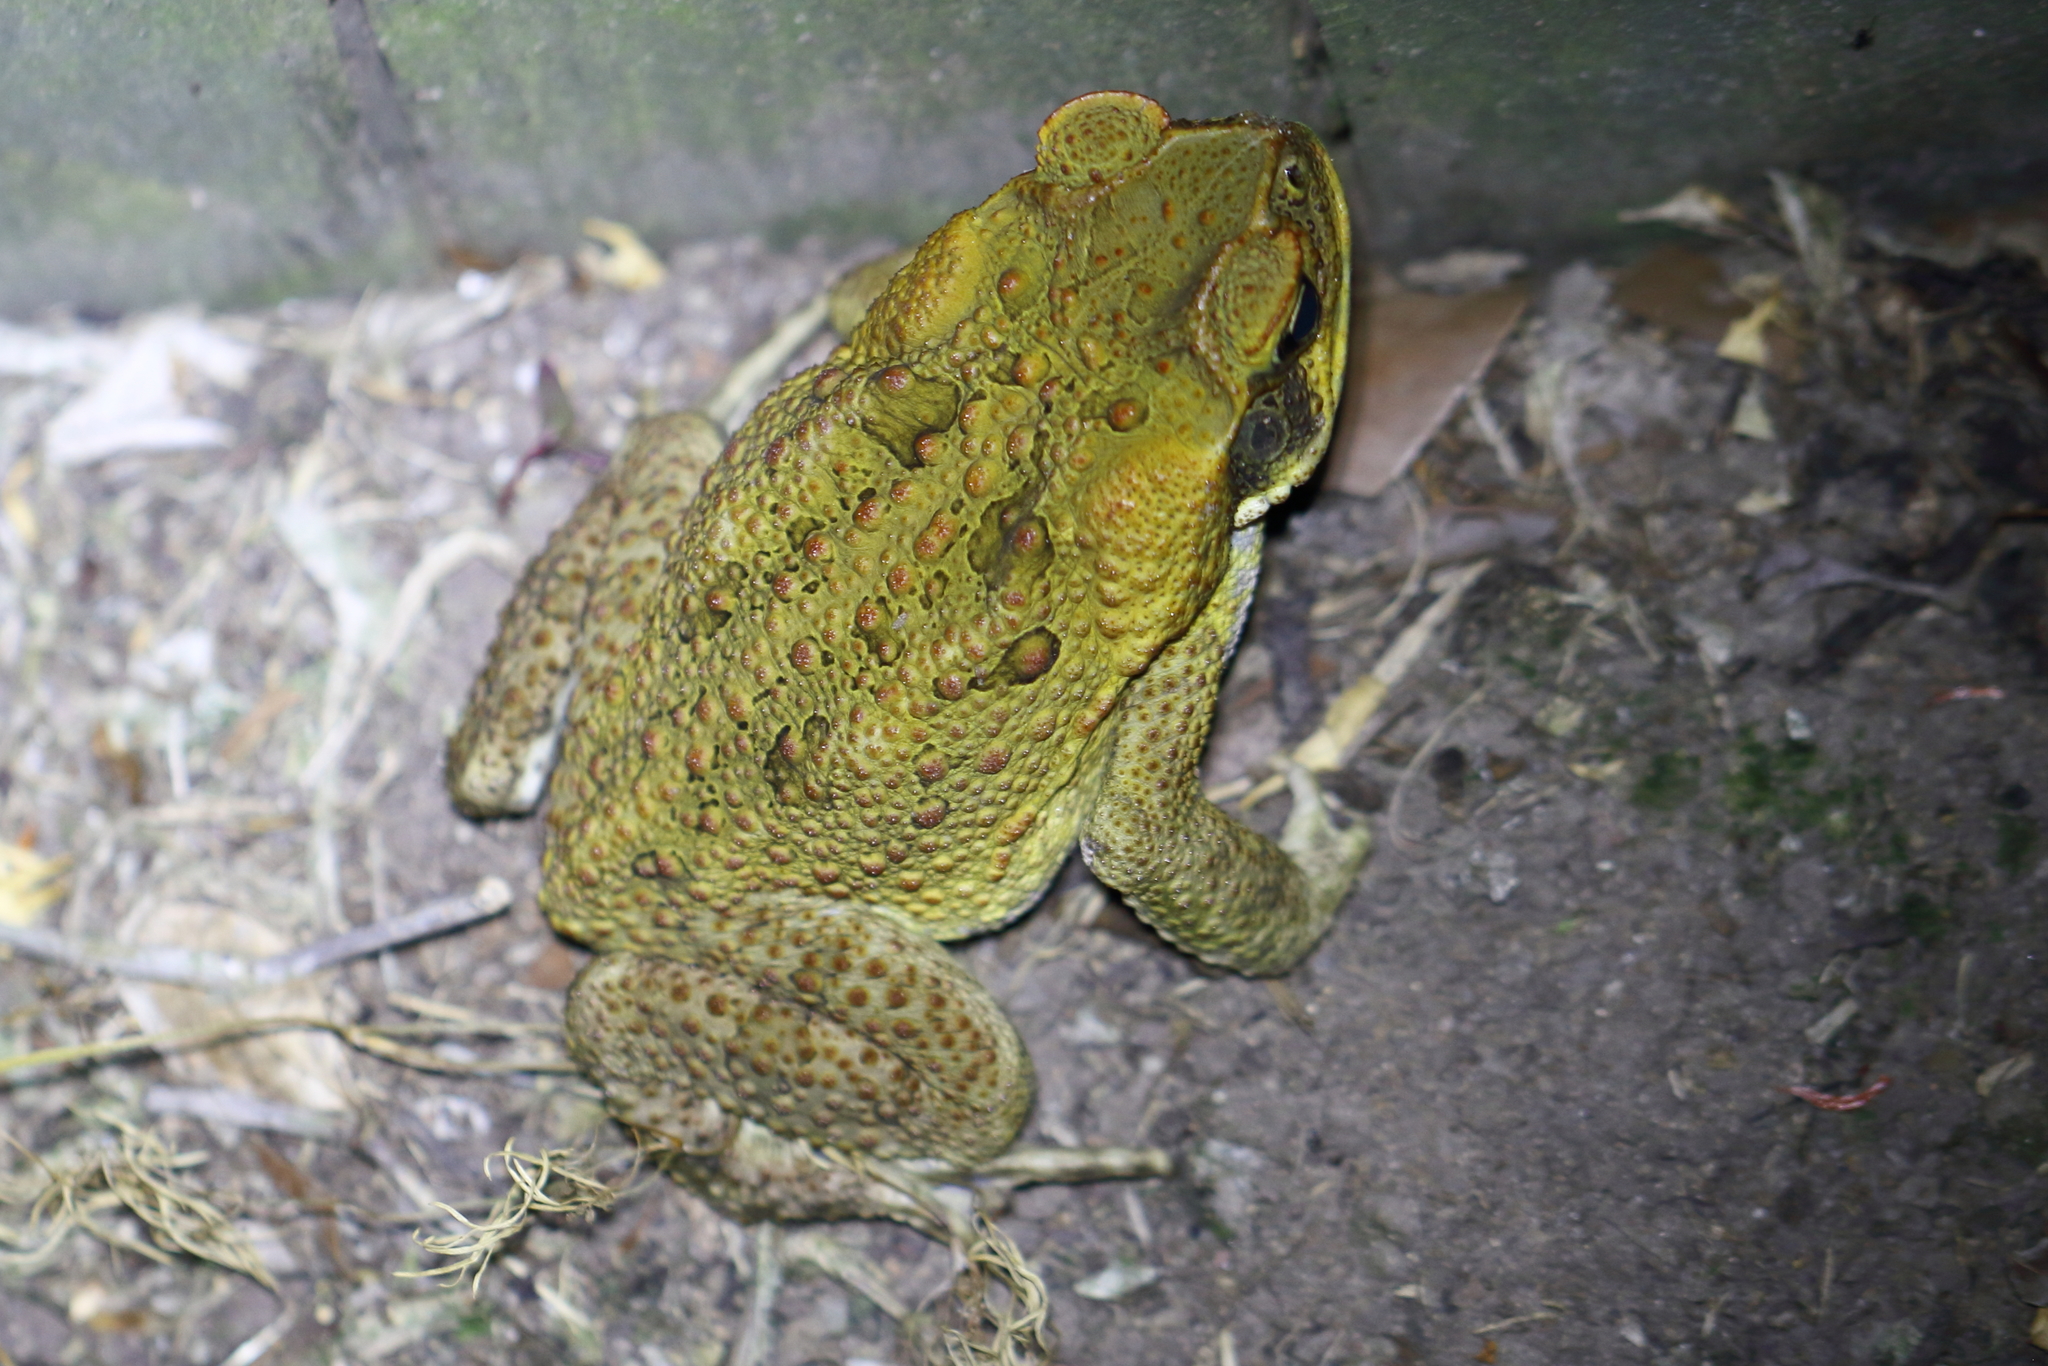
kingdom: Animalia
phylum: Chordata
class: Amphibia
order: Anura
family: Bufonidae
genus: Rhinella
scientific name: Rhinella marina
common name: Cane toad
